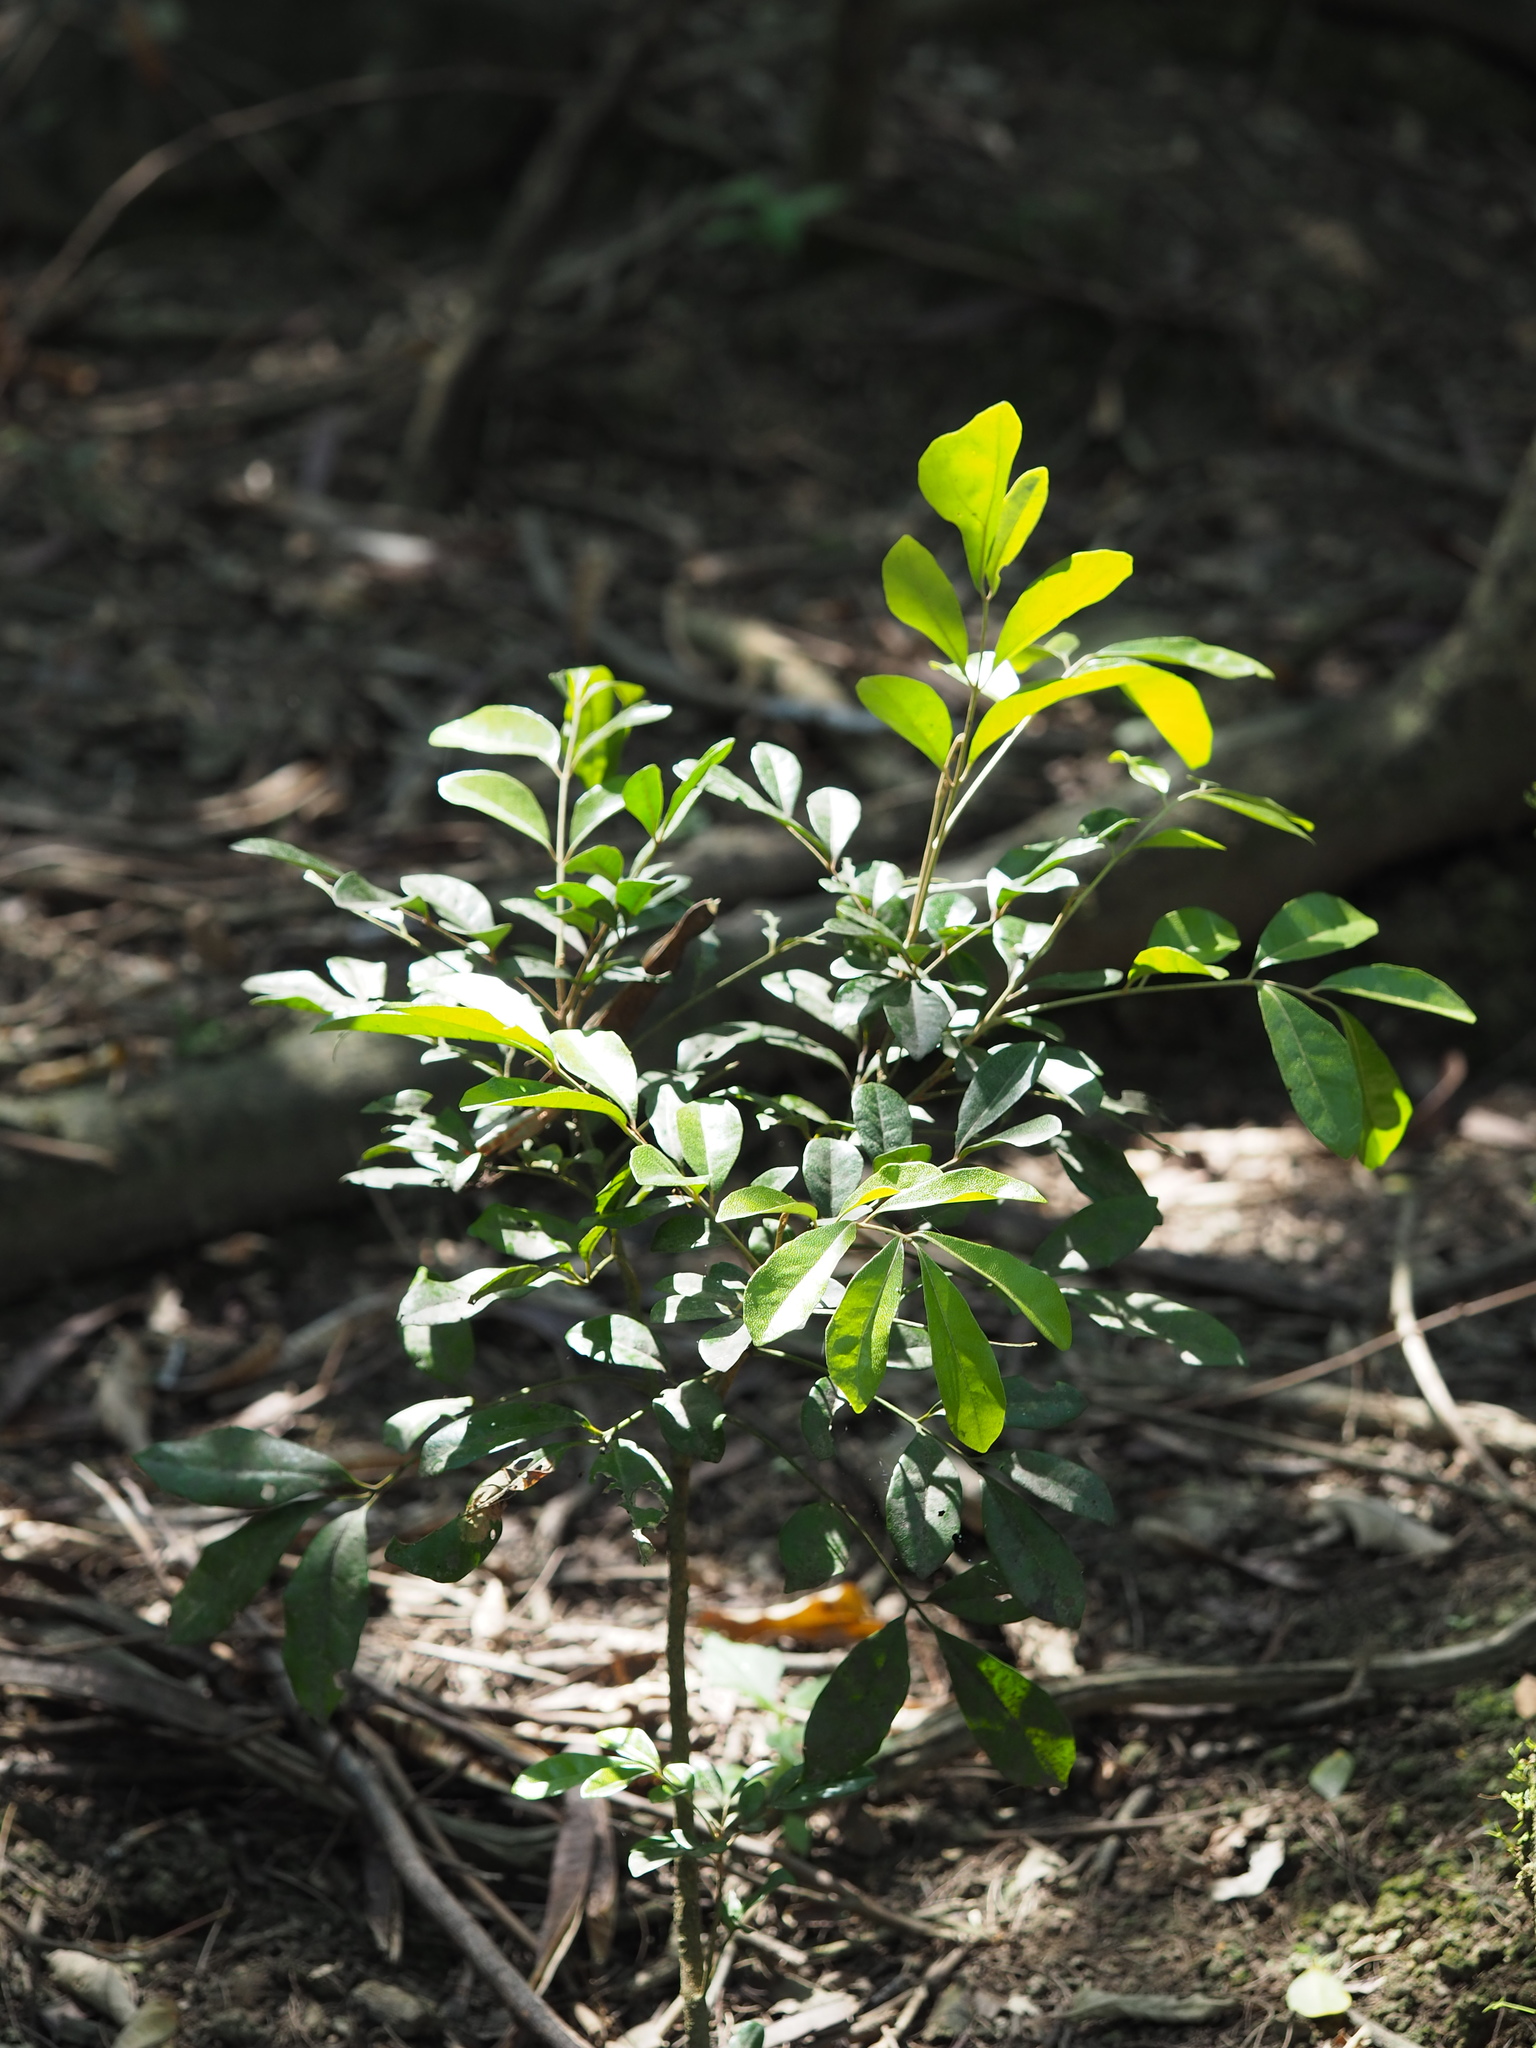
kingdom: Plantae
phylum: Tracheophyta
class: Magnoliopsida
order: Sapindales
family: Meliaceae
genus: Aglaia
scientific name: Aglaia elaeagnoidea
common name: Droopyleaf
